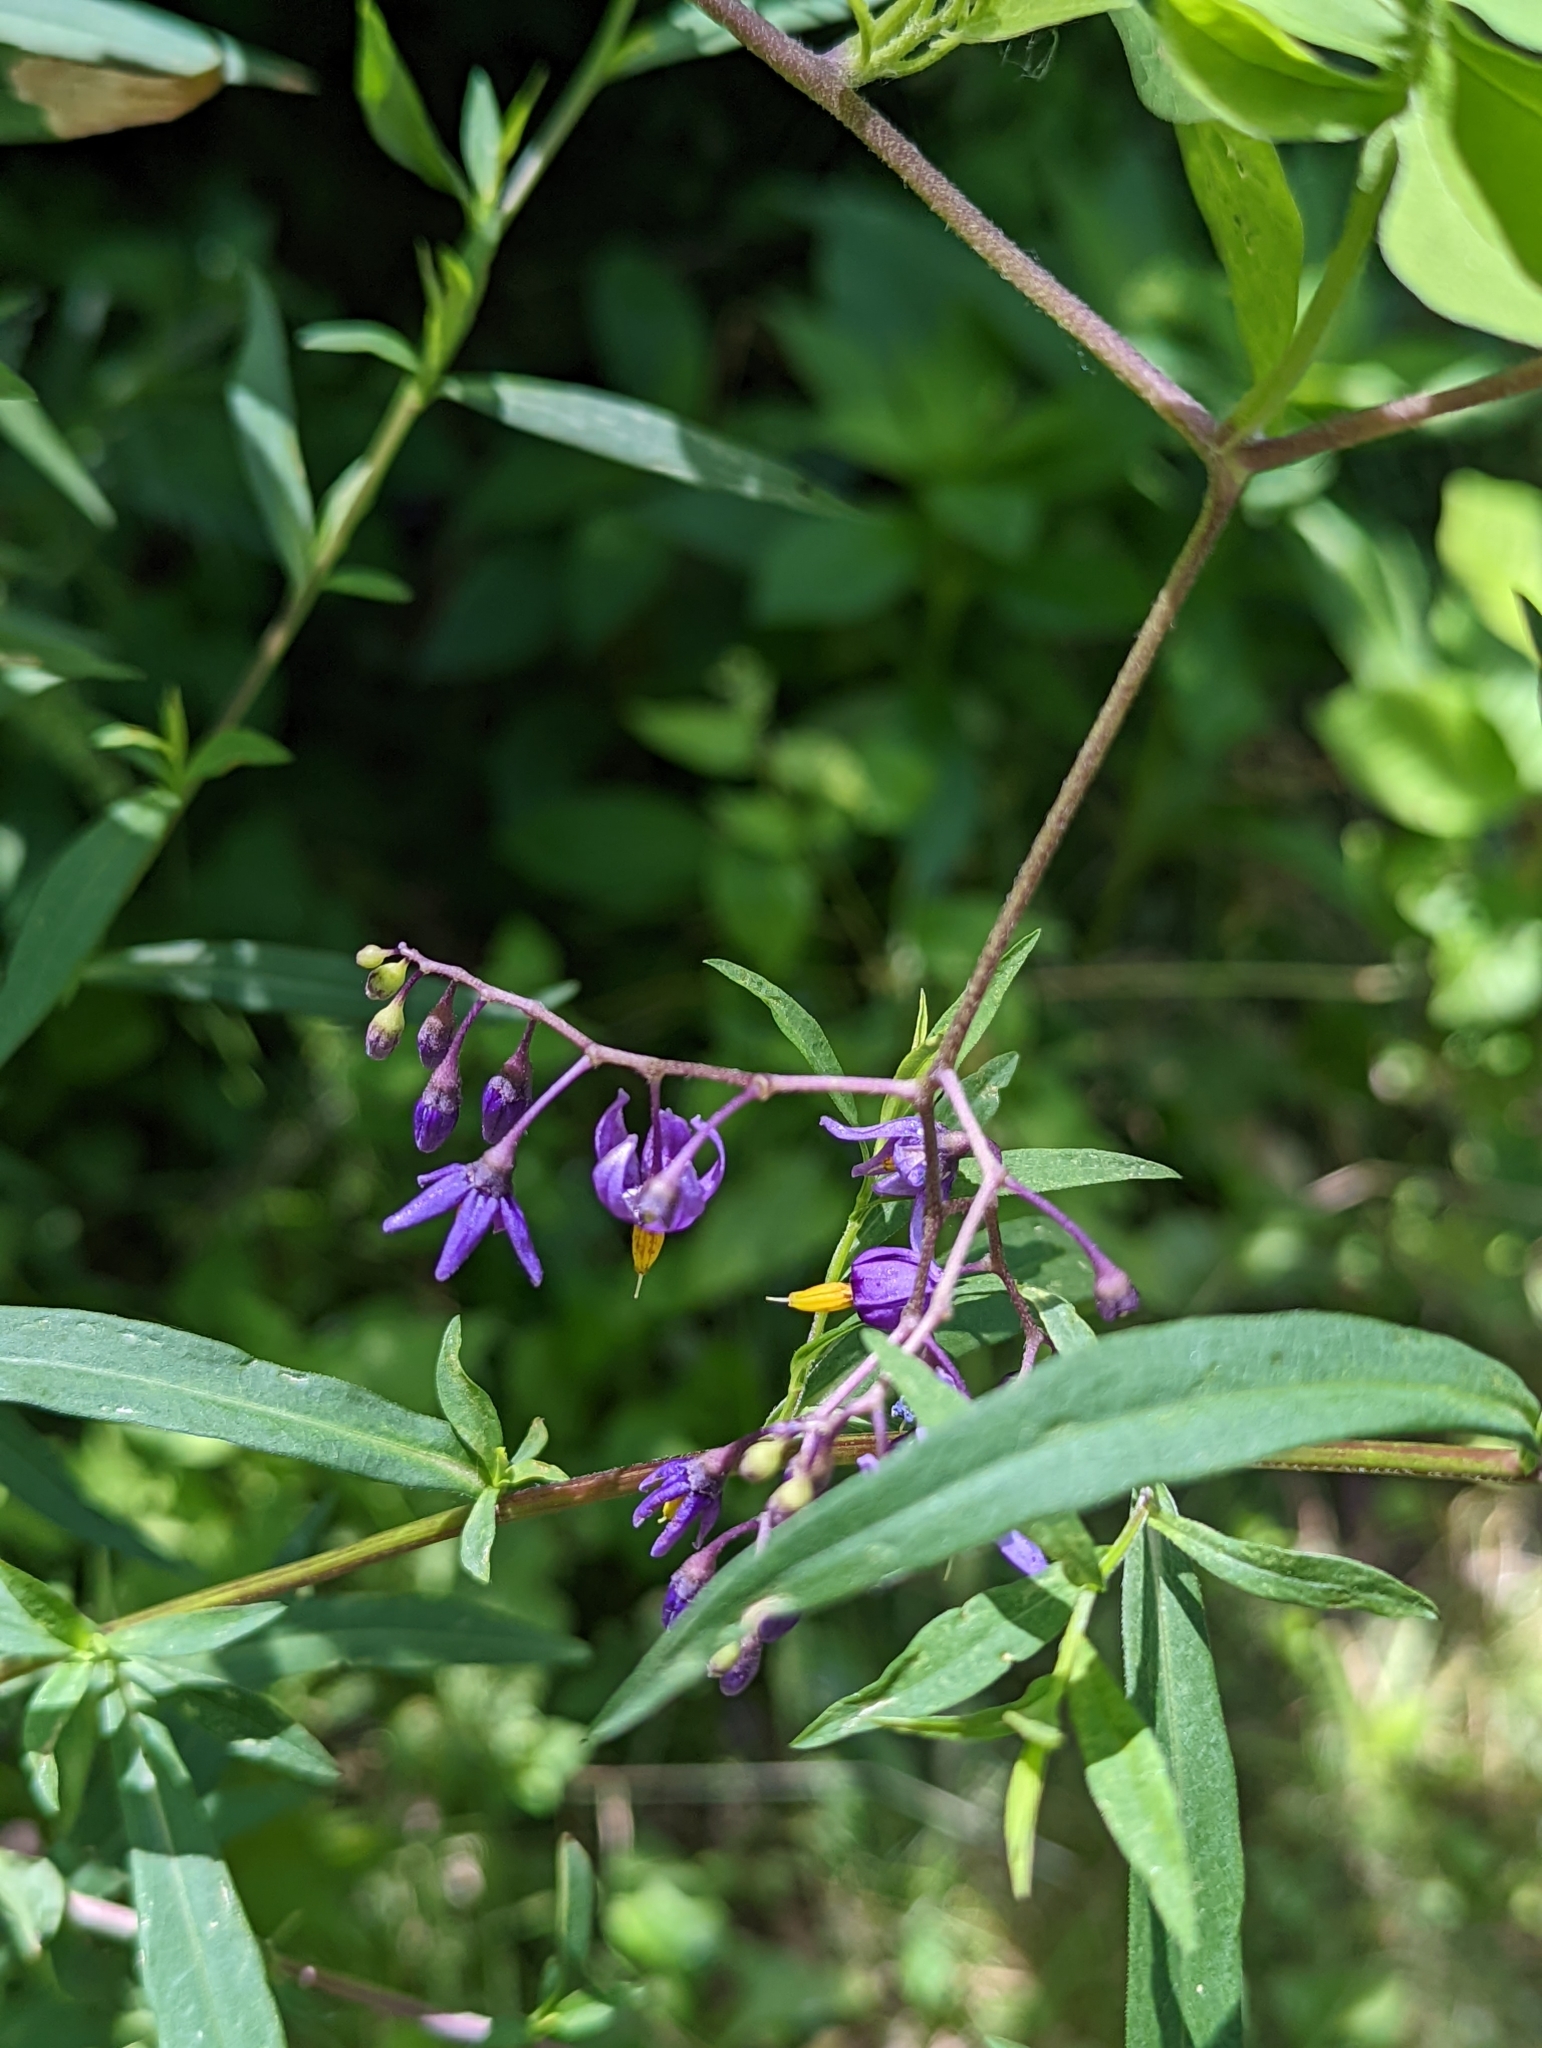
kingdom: Plantae
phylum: Tracheophyta
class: Magnoliopsida
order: Solanales
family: Solanaceae
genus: Solanum
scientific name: Solanum dulcamara
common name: Climbing nightshade
